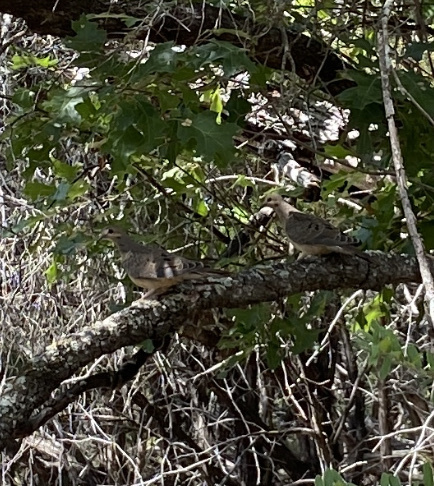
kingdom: Animalia
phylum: Chordata
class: Aves
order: Columbiformes
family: Columbidae
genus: Zenaida
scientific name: Zenaida macroura
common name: Mourning dove
